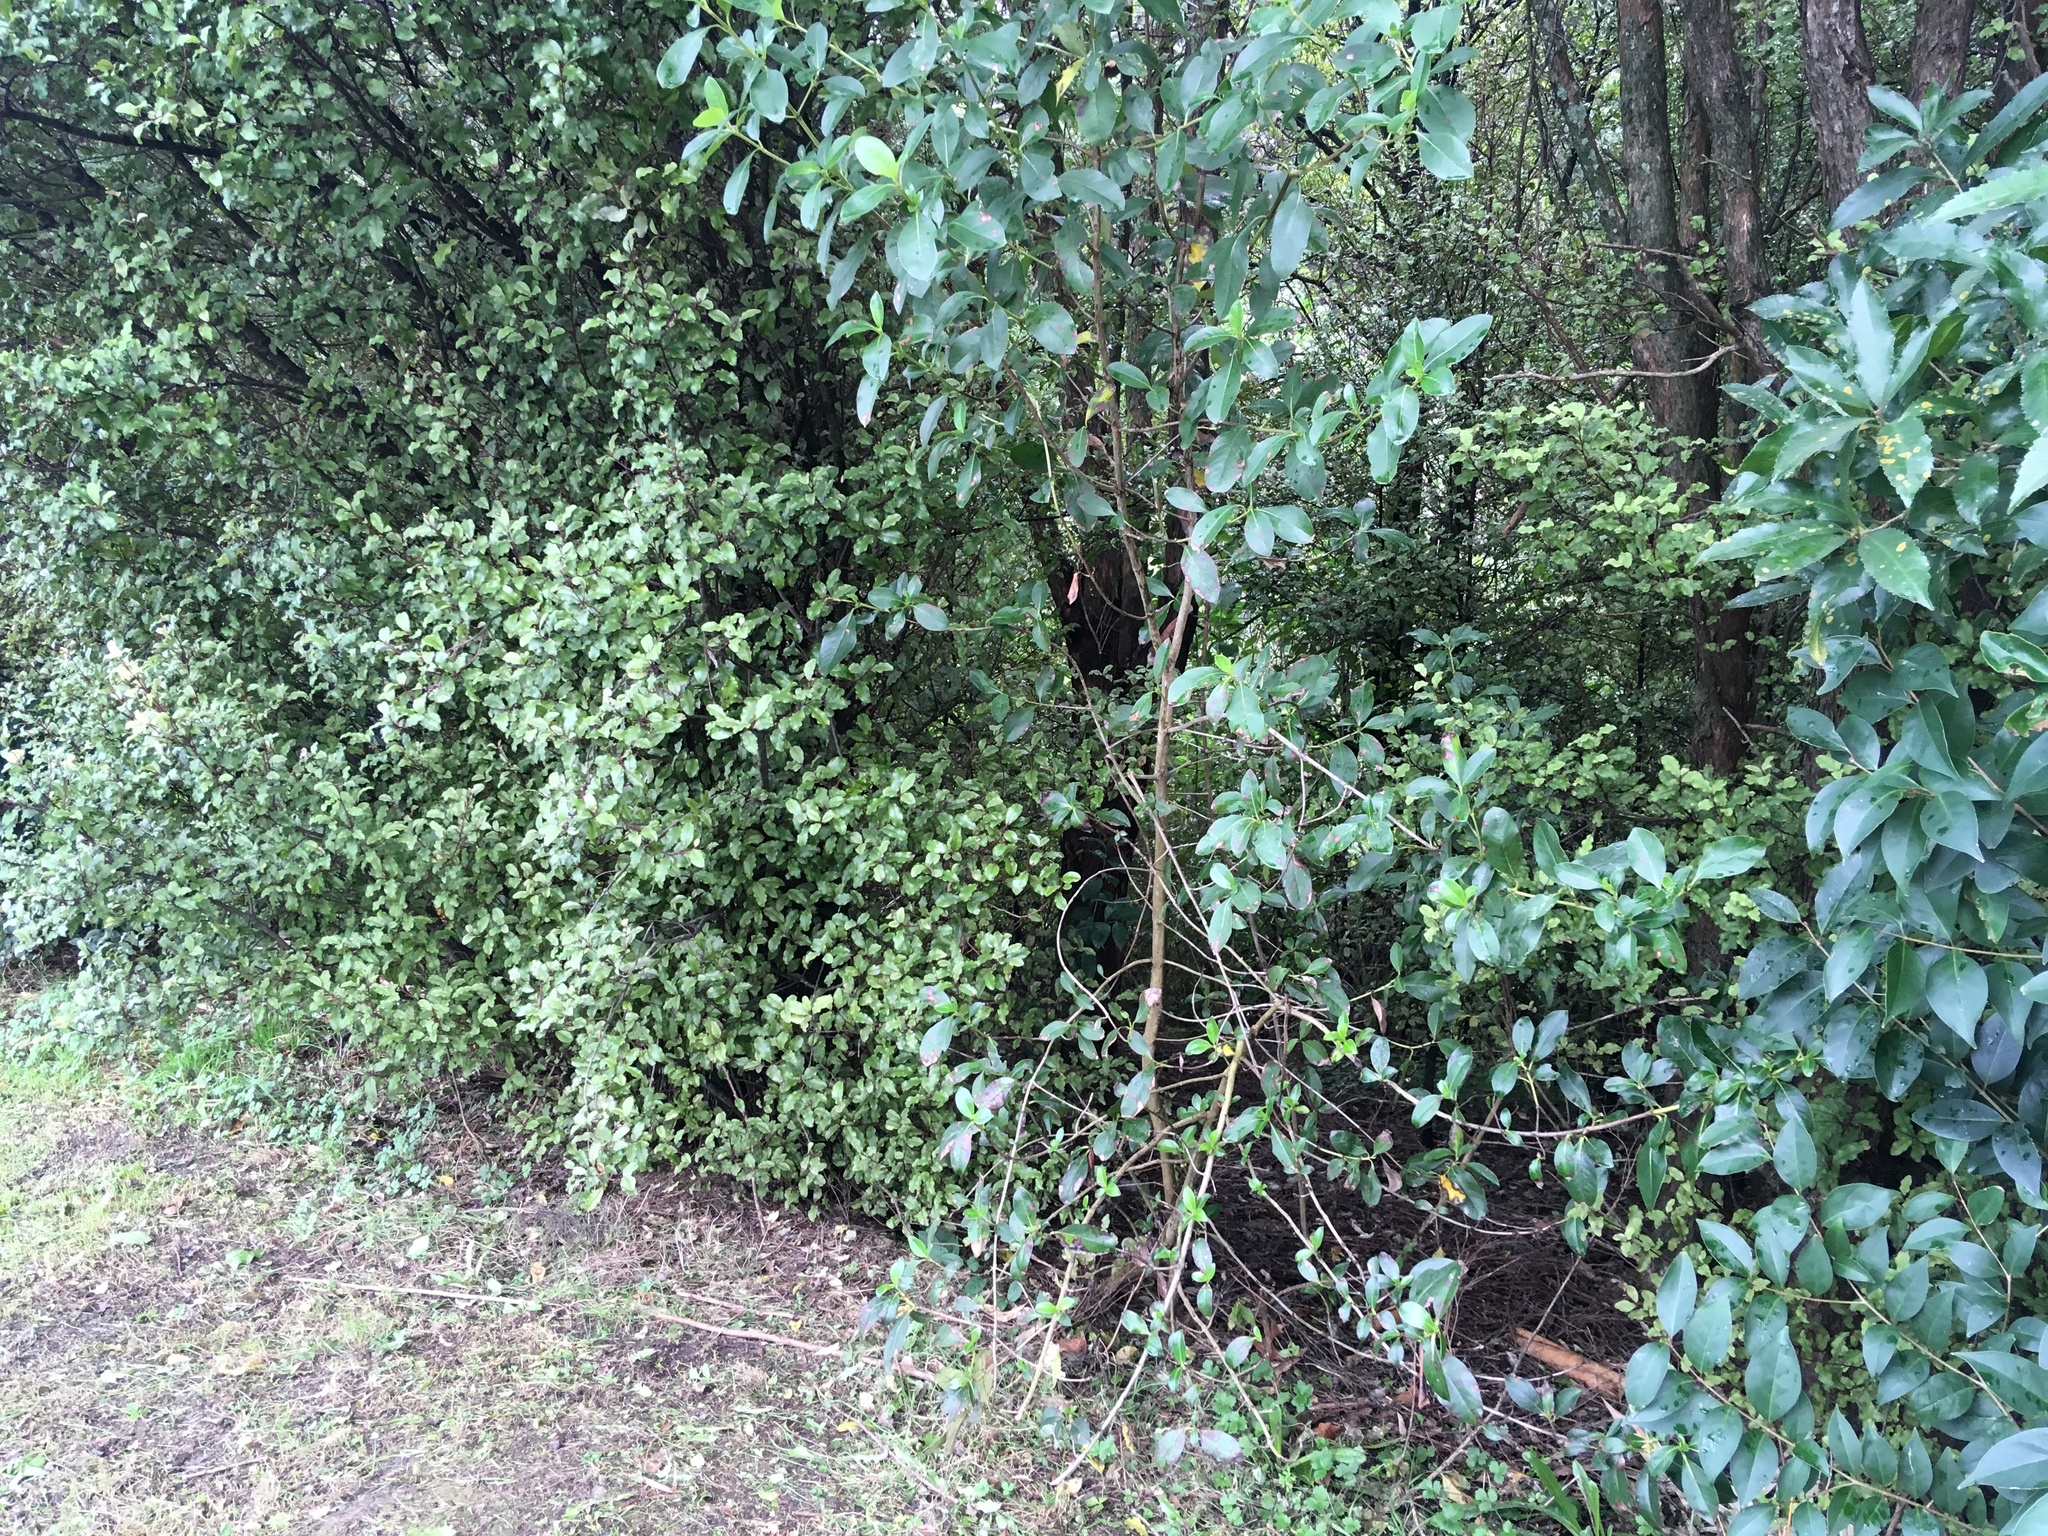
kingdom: Plantae
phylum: Tracheophyta
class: Magnoliopsida
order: Lamiales
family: Oleaceae
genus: Ligustrum
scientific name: Ligustrum lucidum
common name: Glossy privet
